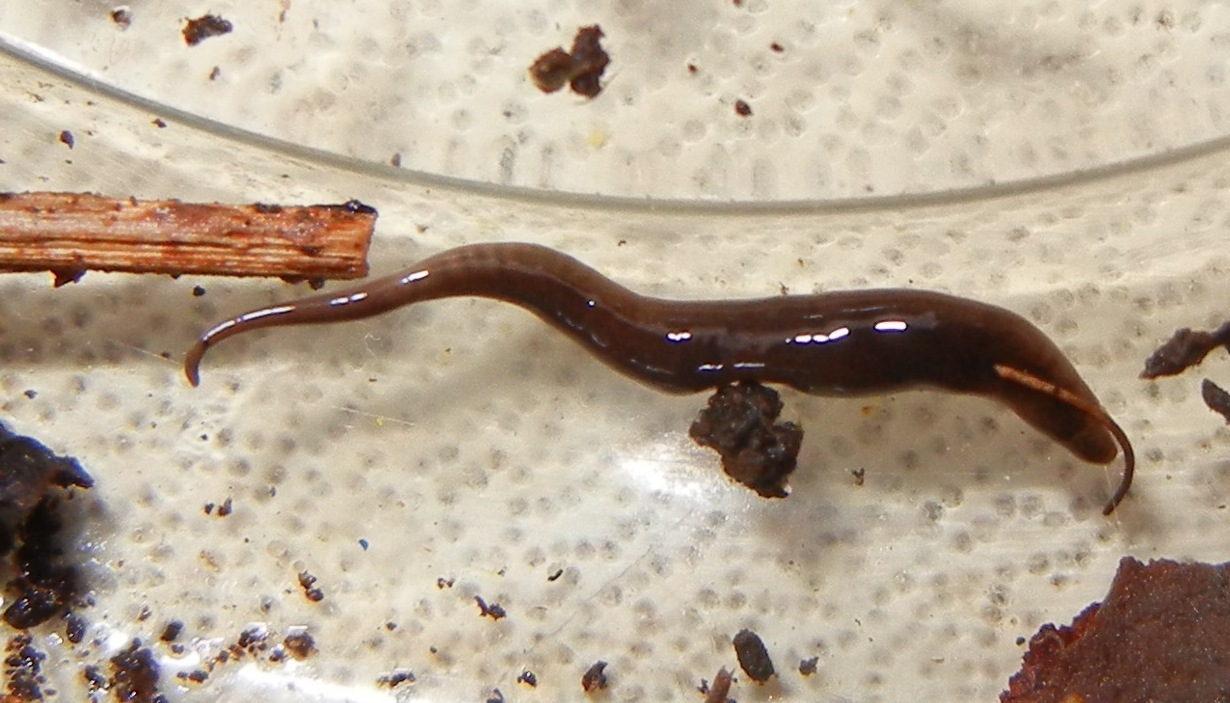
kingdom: Animalia
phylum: Platyhelminthes
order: Tricladida
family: Geoplanidae
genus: Rhynchodemus
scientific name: Rhynchodemus sylvaticus
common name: A flatworm
